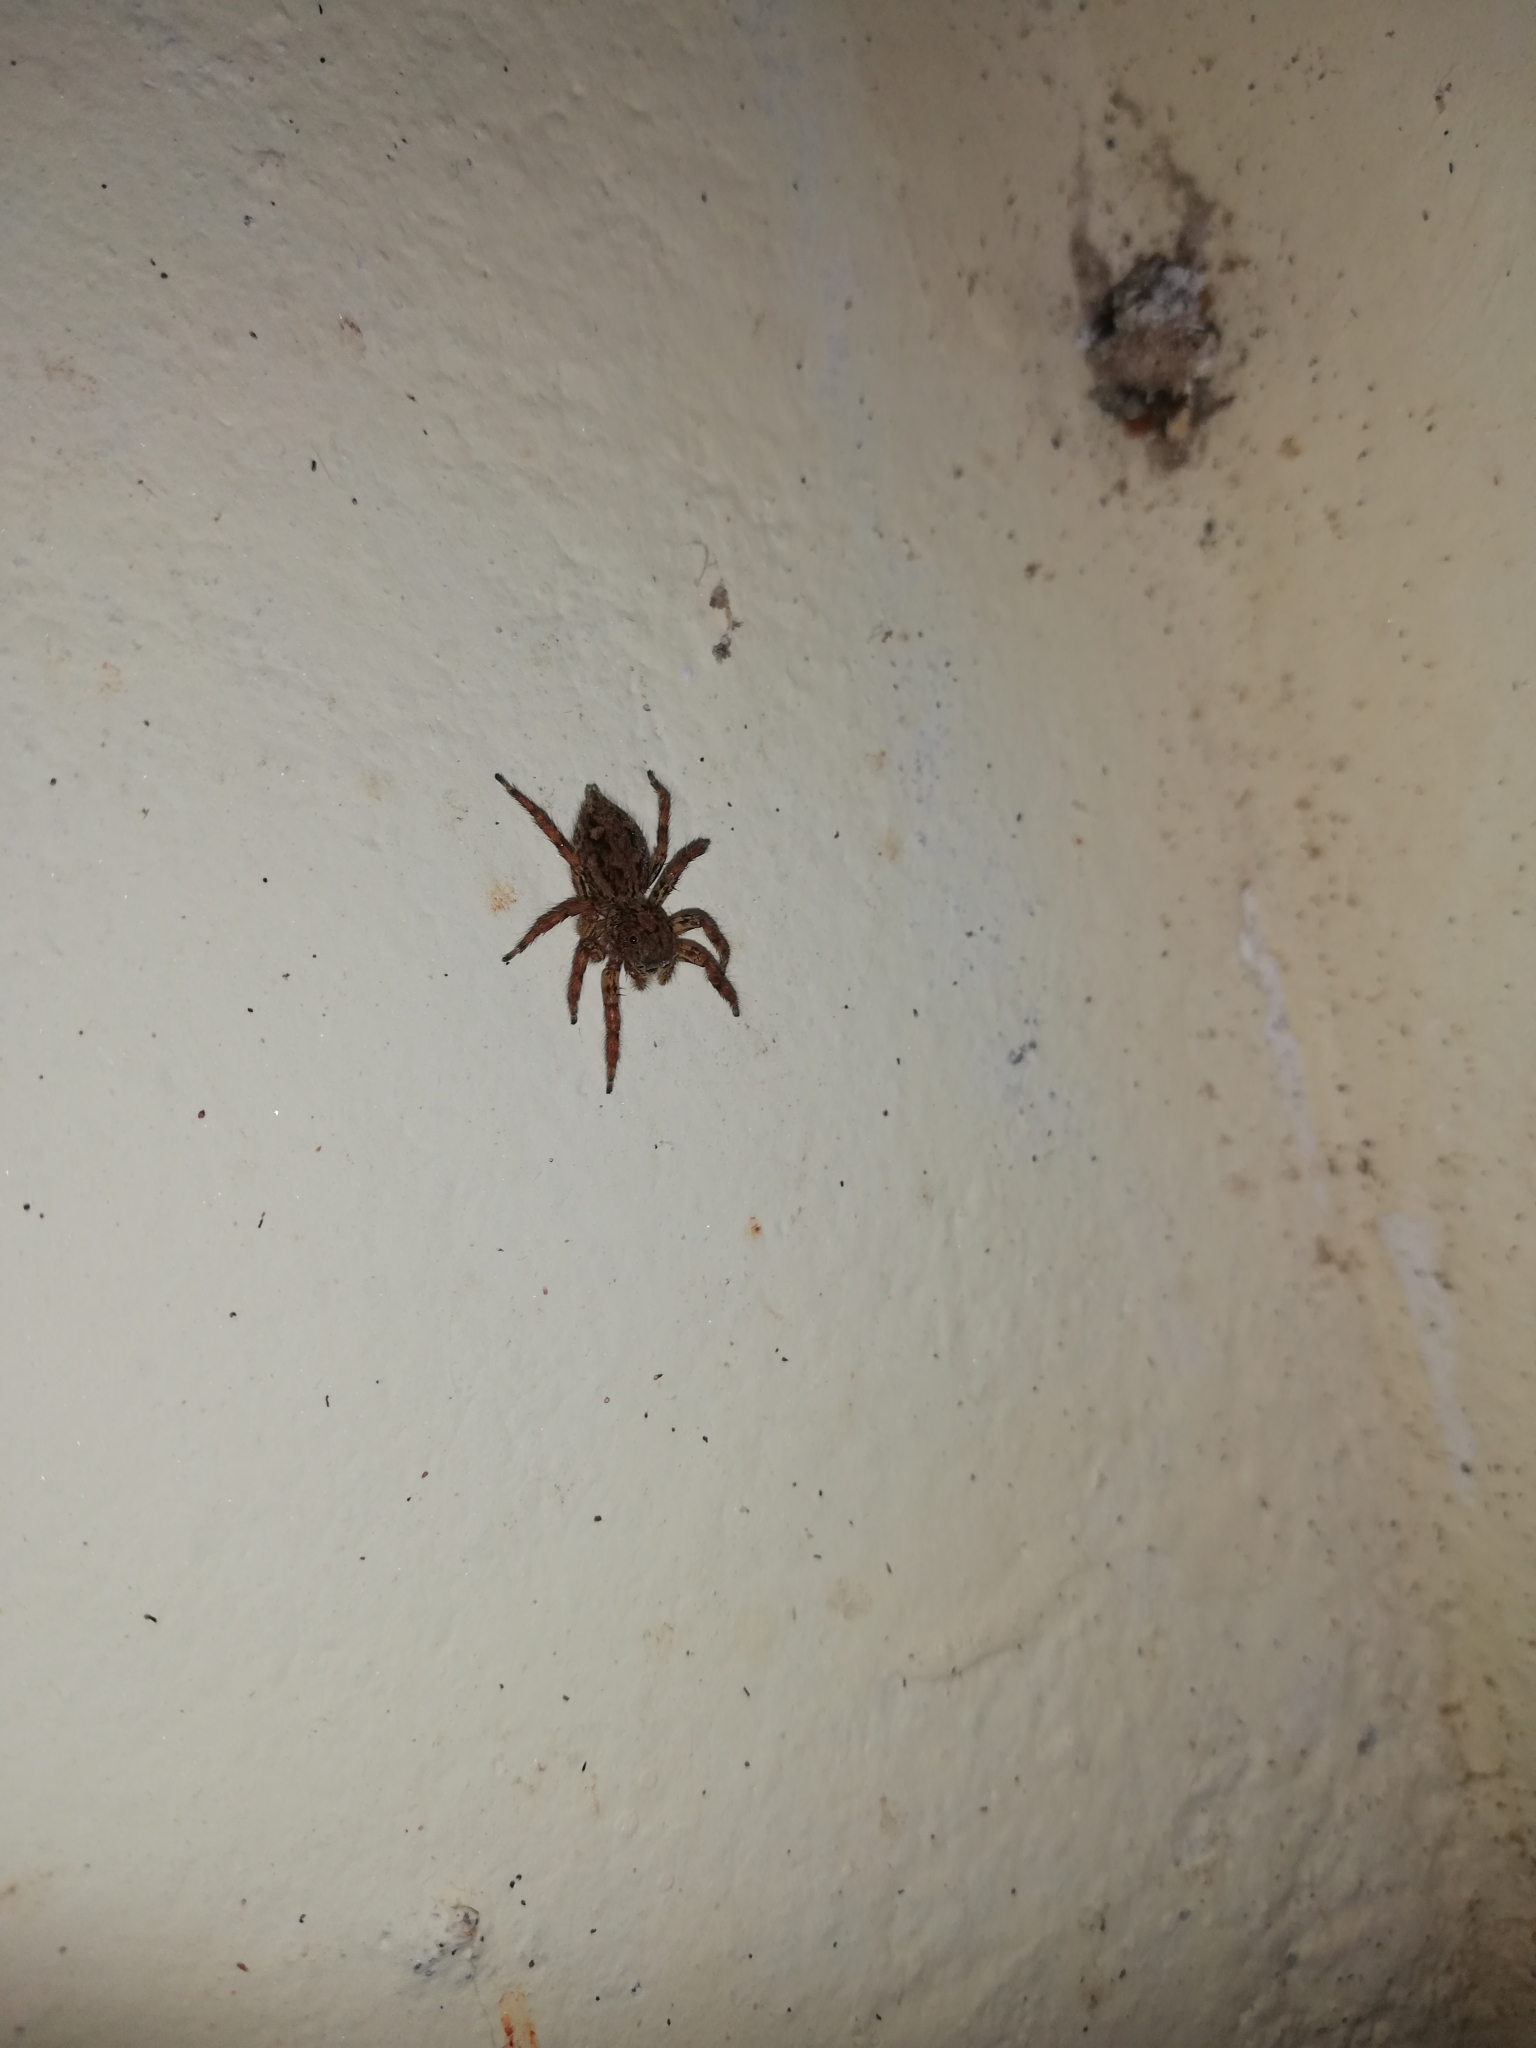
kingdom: Animalia
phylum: Arthropoda
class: Arachnida
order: Araneae
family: Salticidae
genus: Plexippus
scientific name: Plexippus paykulli
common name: Pantropical jumper
